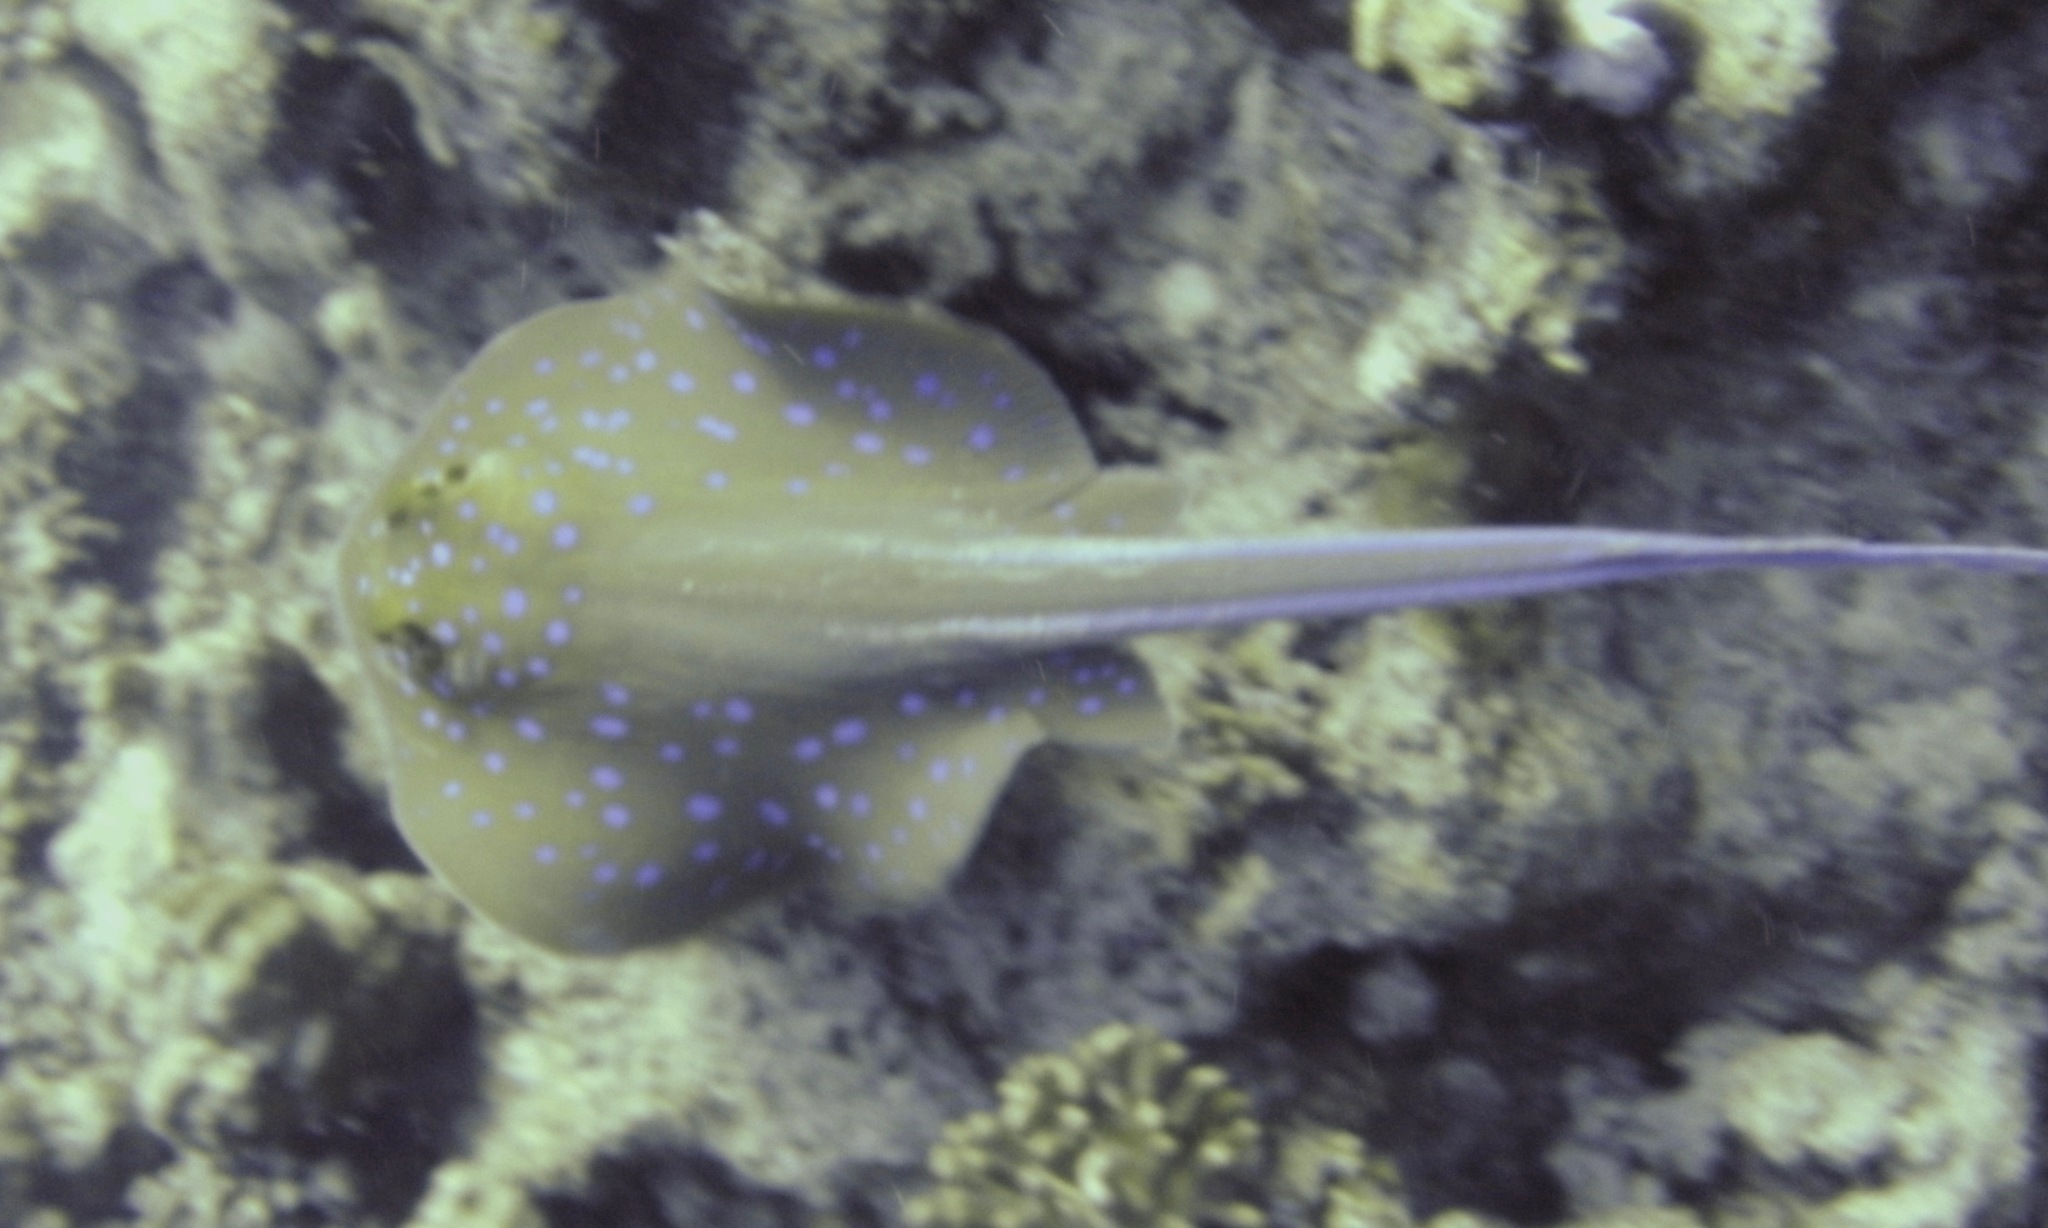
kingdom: Animalia
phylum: Chordata
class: Elasmobranchii
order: Myliobatiformes
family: Dasyatidae
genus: Taeniura
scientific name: Taeniura lymma
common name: Bluespotted ribbontail ray
